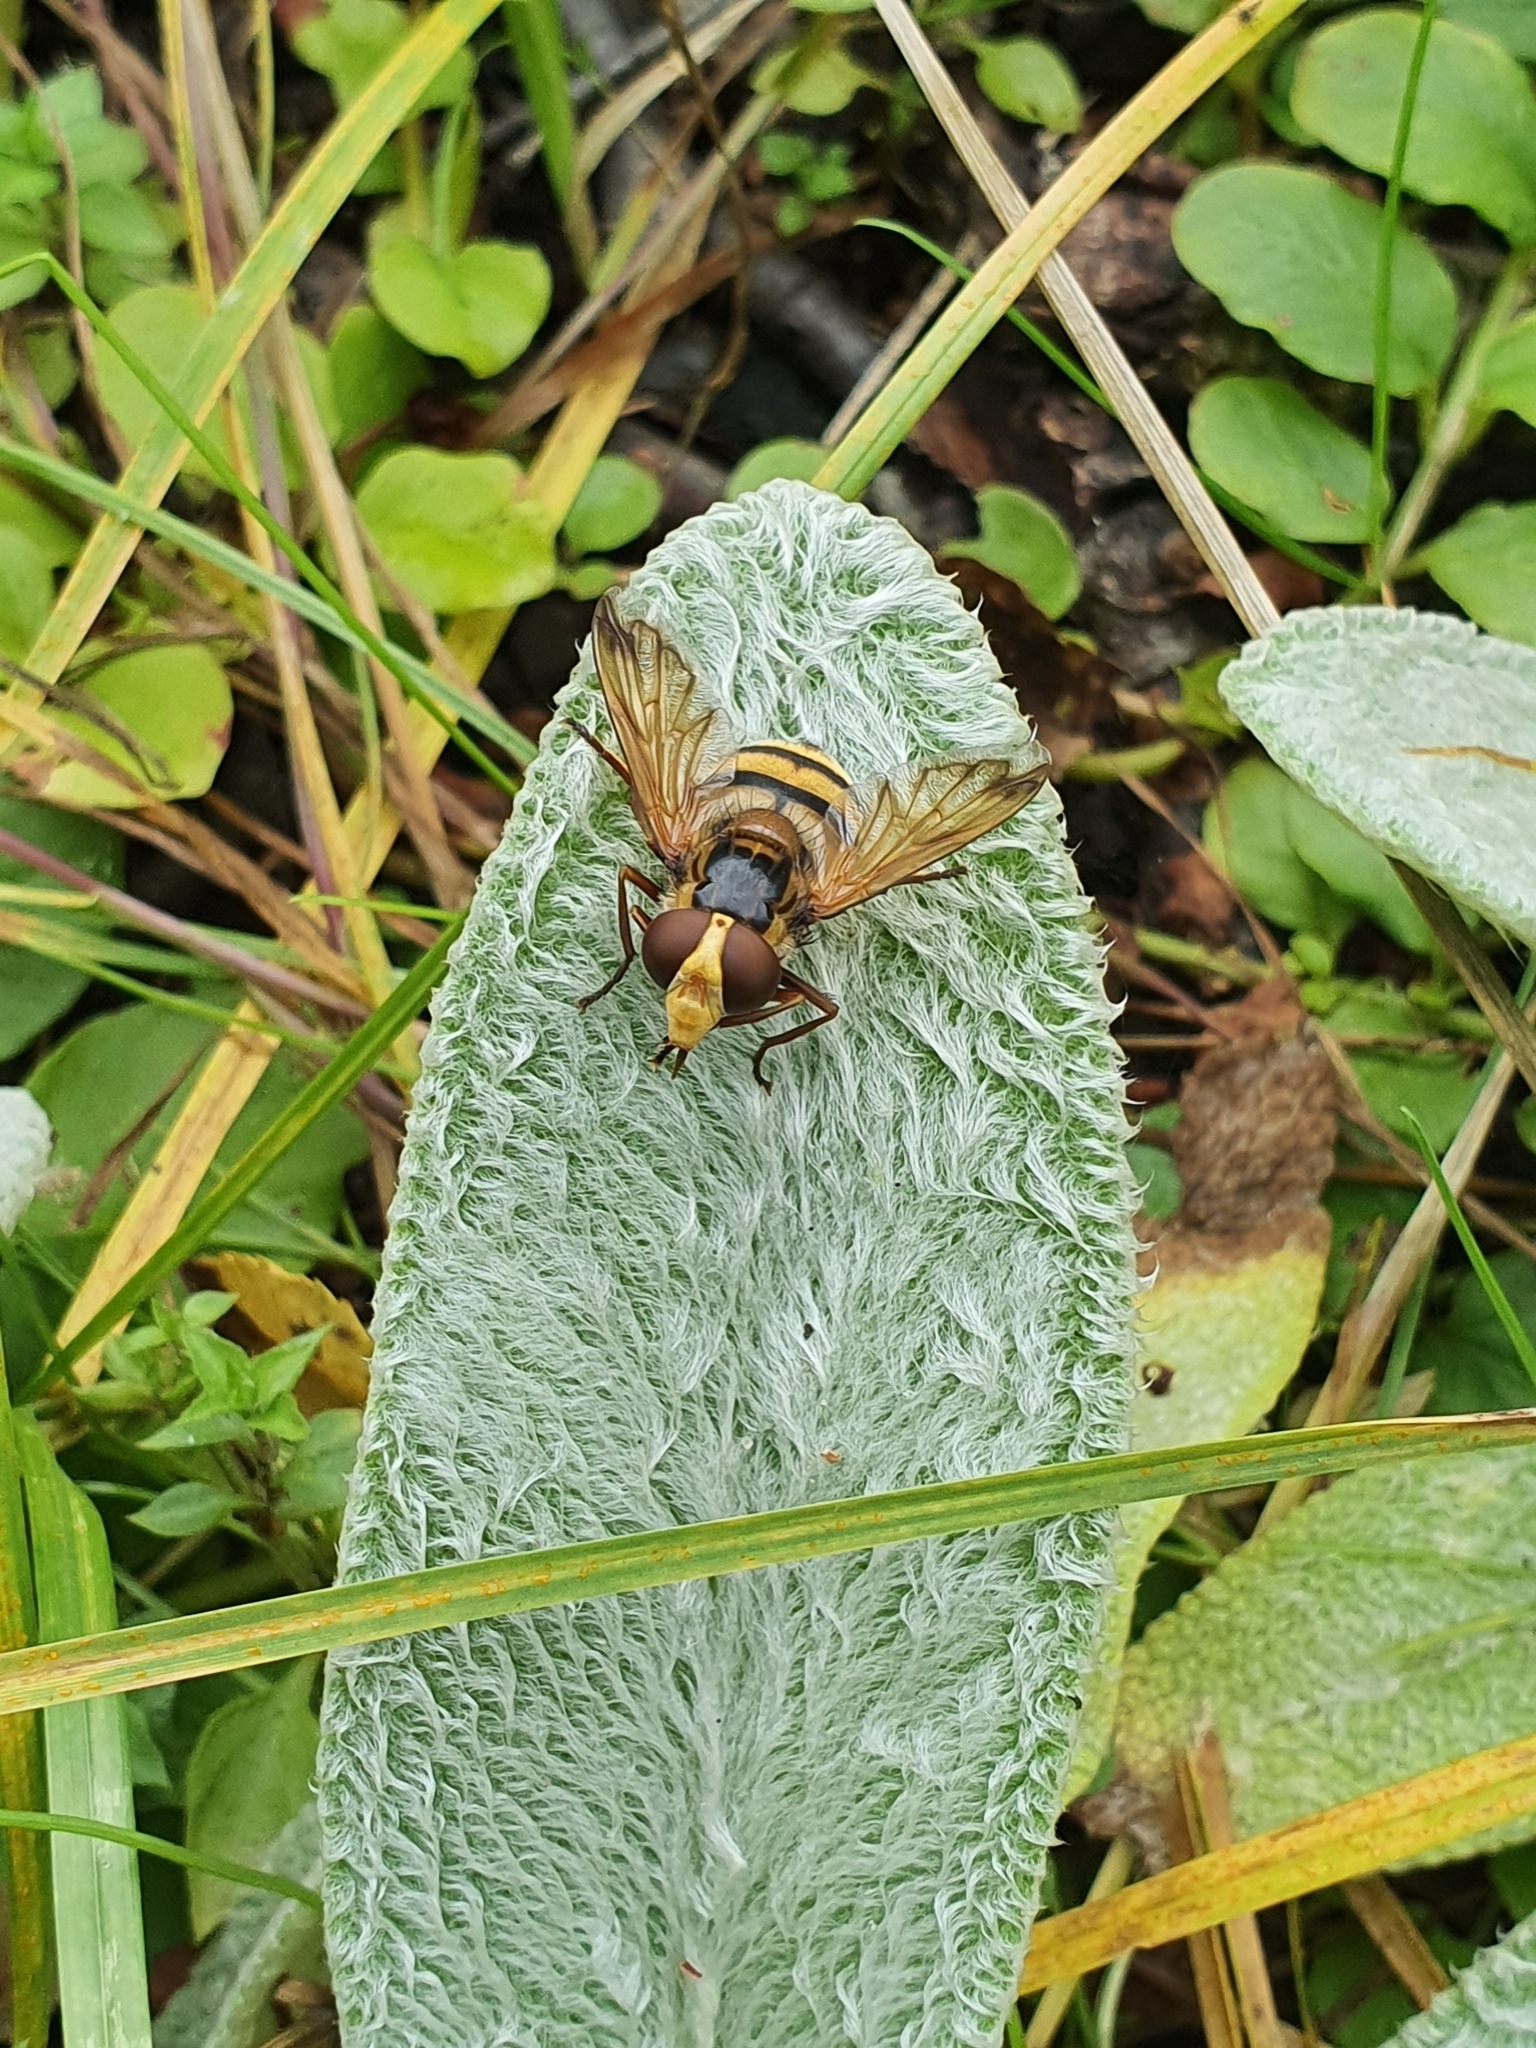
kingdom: Animalia
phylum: Arthropoda
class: Insecta
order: Diptera
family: Syrphidae
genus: Volucella
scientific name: Volucella inanis
